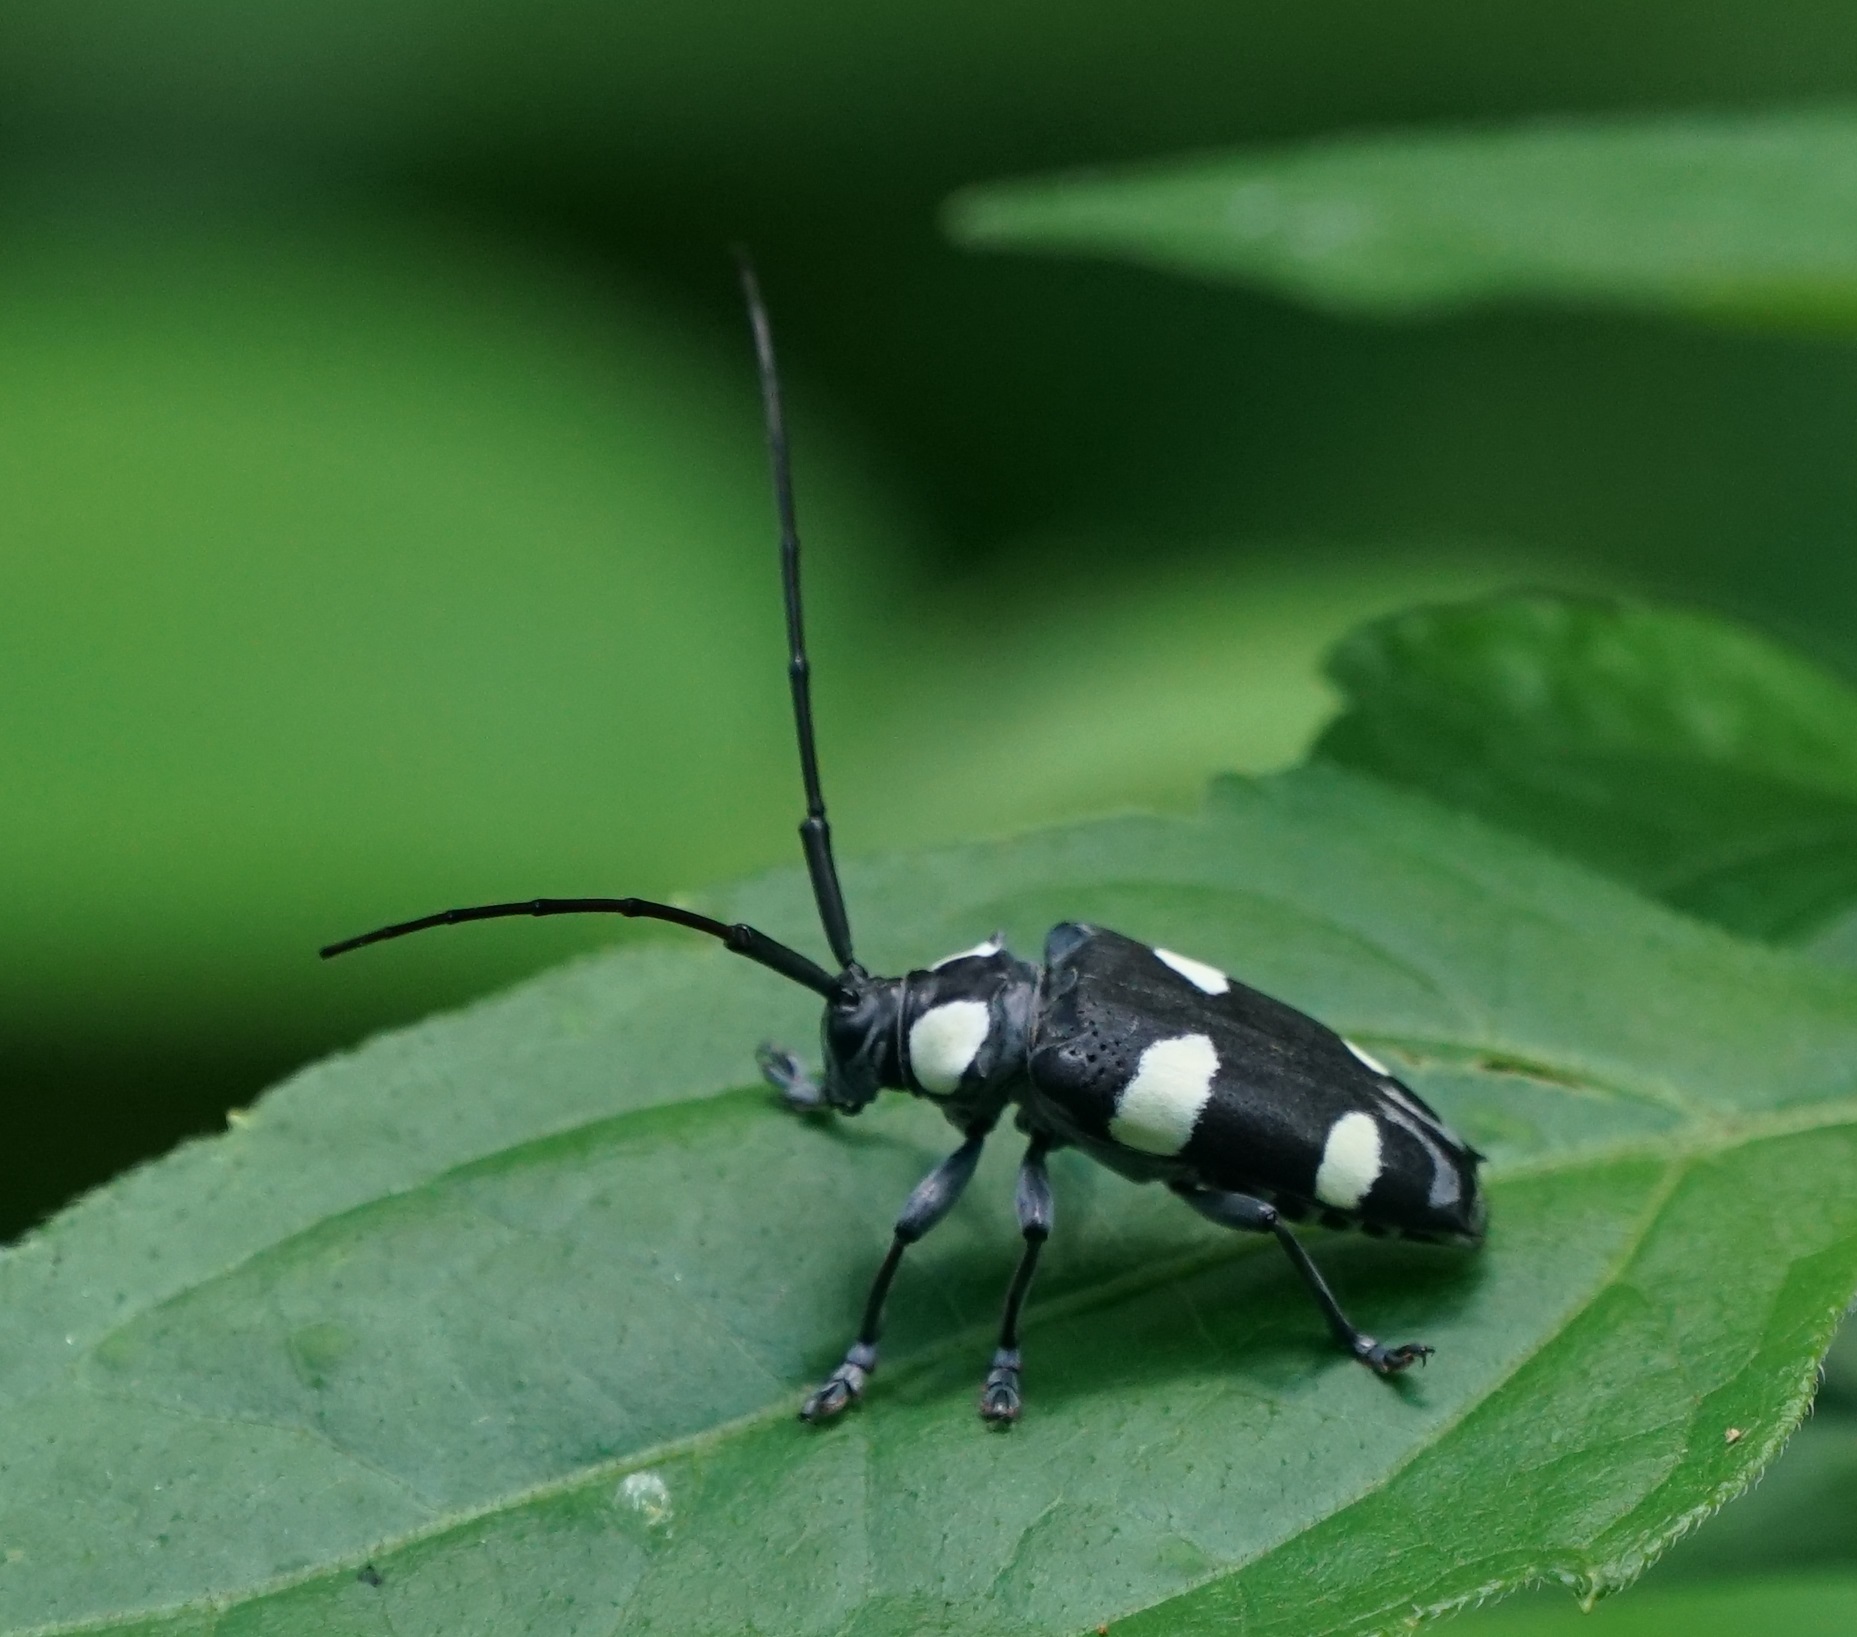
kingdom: Animalia
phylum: Arthropoda
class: Insecta
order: Coleoptera
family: Cerambycidae
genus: Cereopsius
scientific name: Cereopsius arbiter
